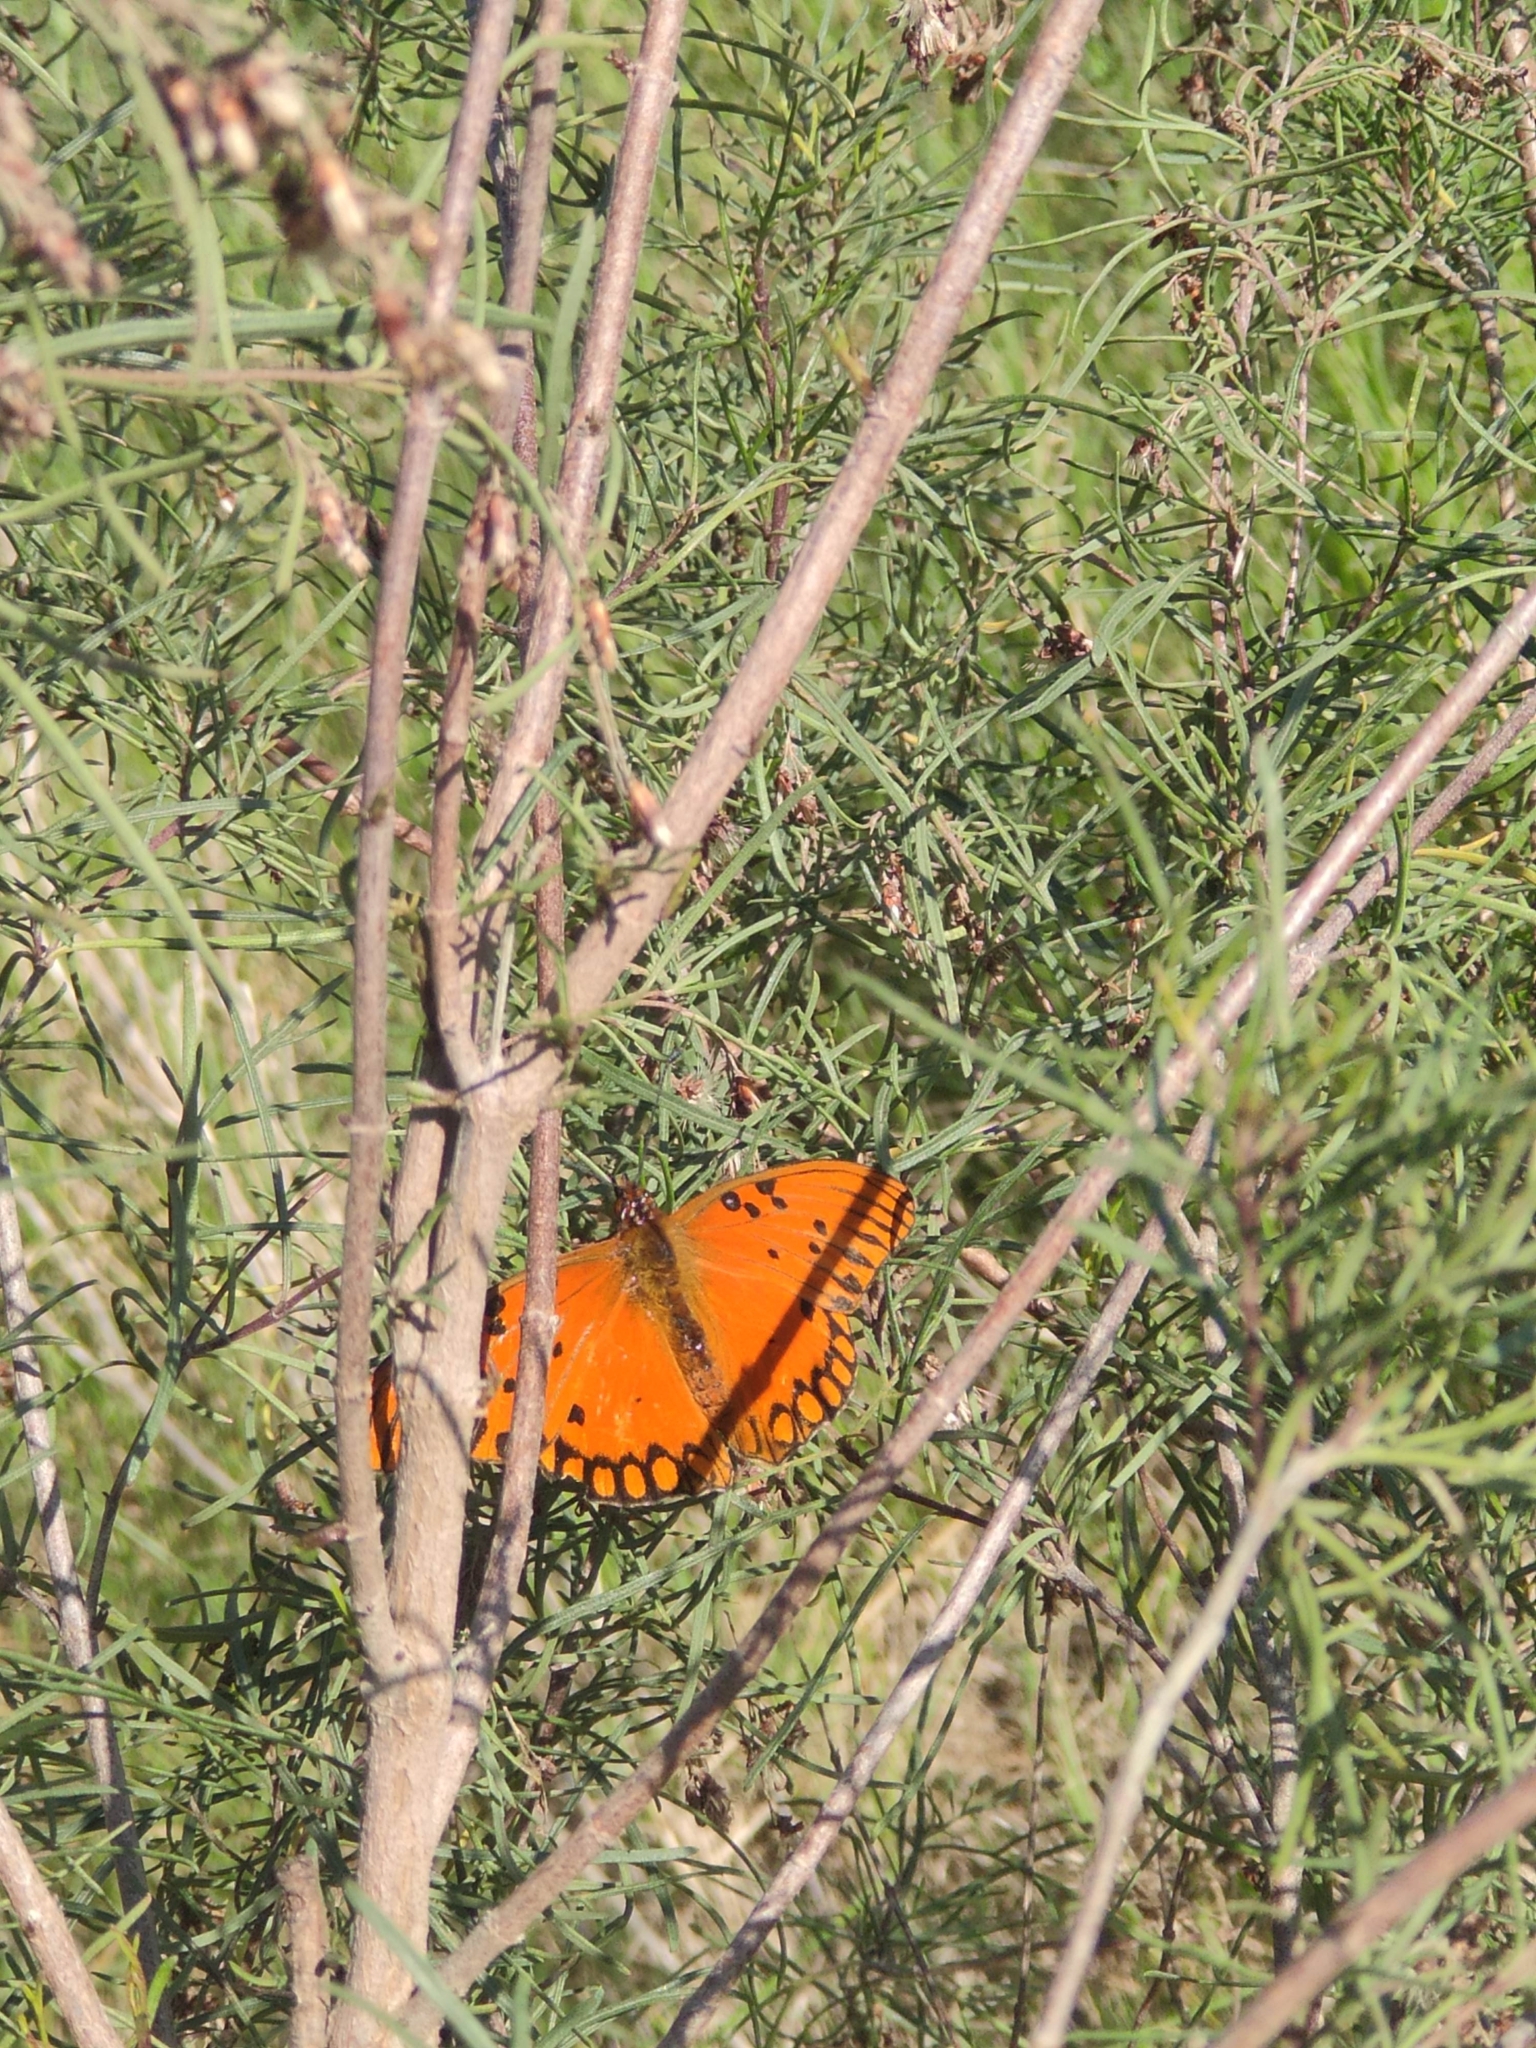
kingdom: Animalia
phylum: Arthropoda
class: Insecta
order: Lepidoptera
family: Nymphalidae
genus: Dione
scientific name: Dione vanillae
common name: Gulf fritillary
